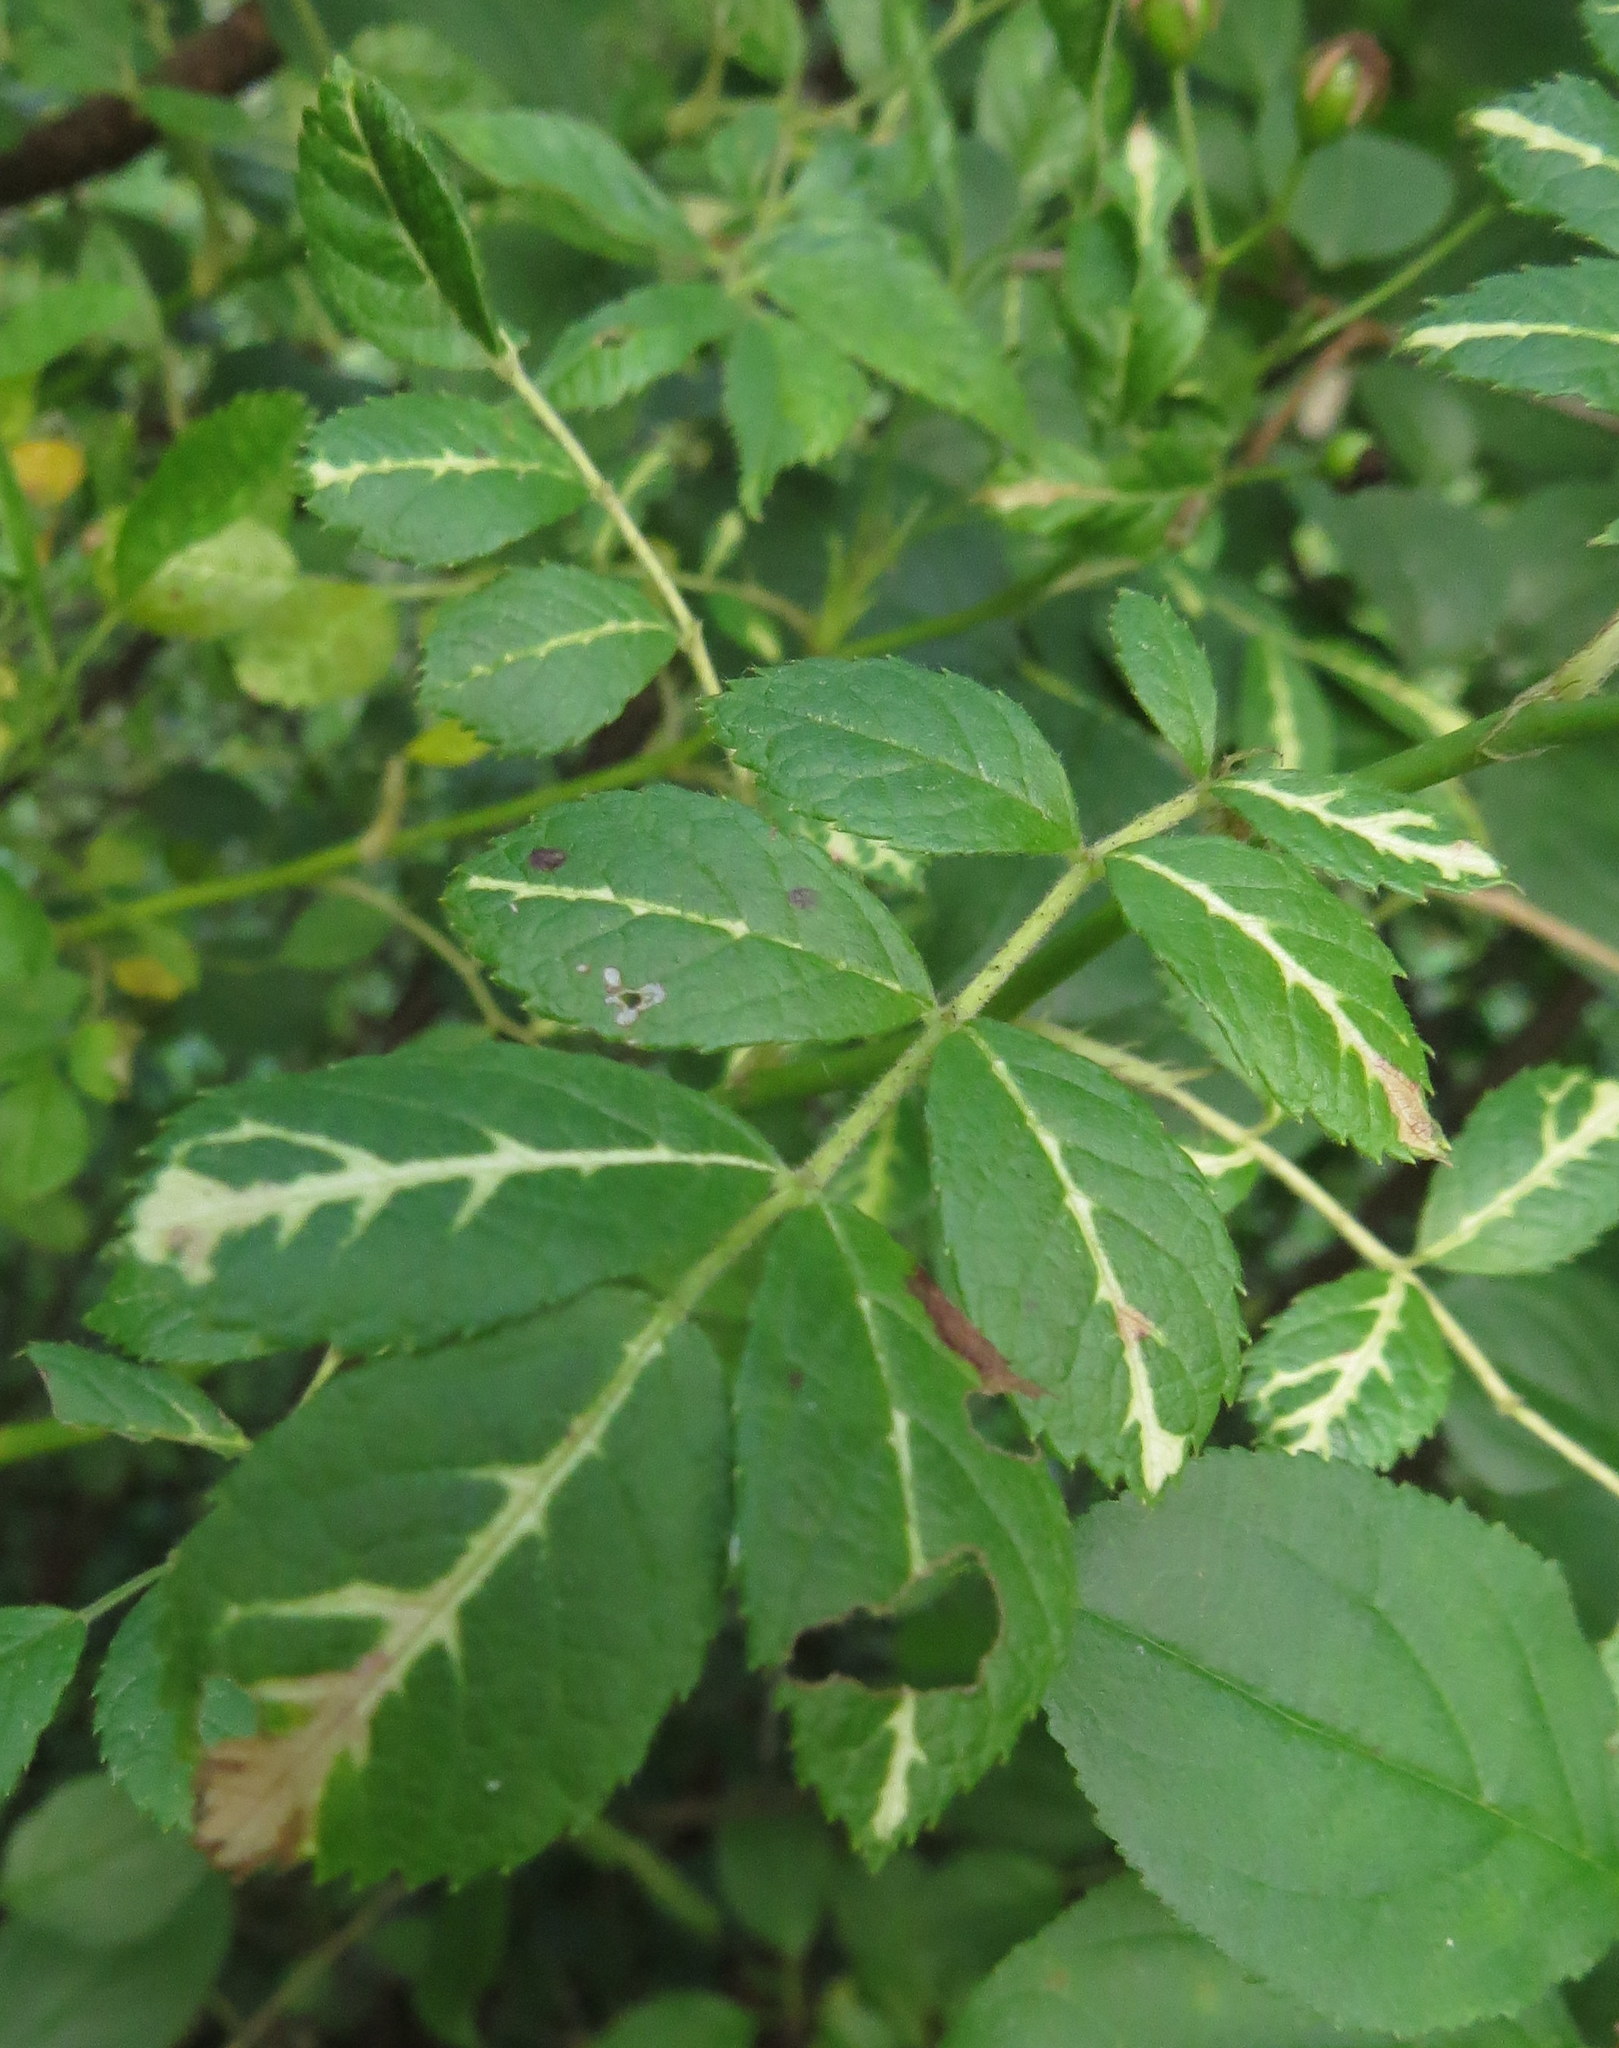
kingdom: Viruses
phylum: Negarnaviricota
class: Ellioviricetes
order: Bunyavirales
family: Fimoviridae
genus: Emaravirus
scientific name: Emaravirus rosae
